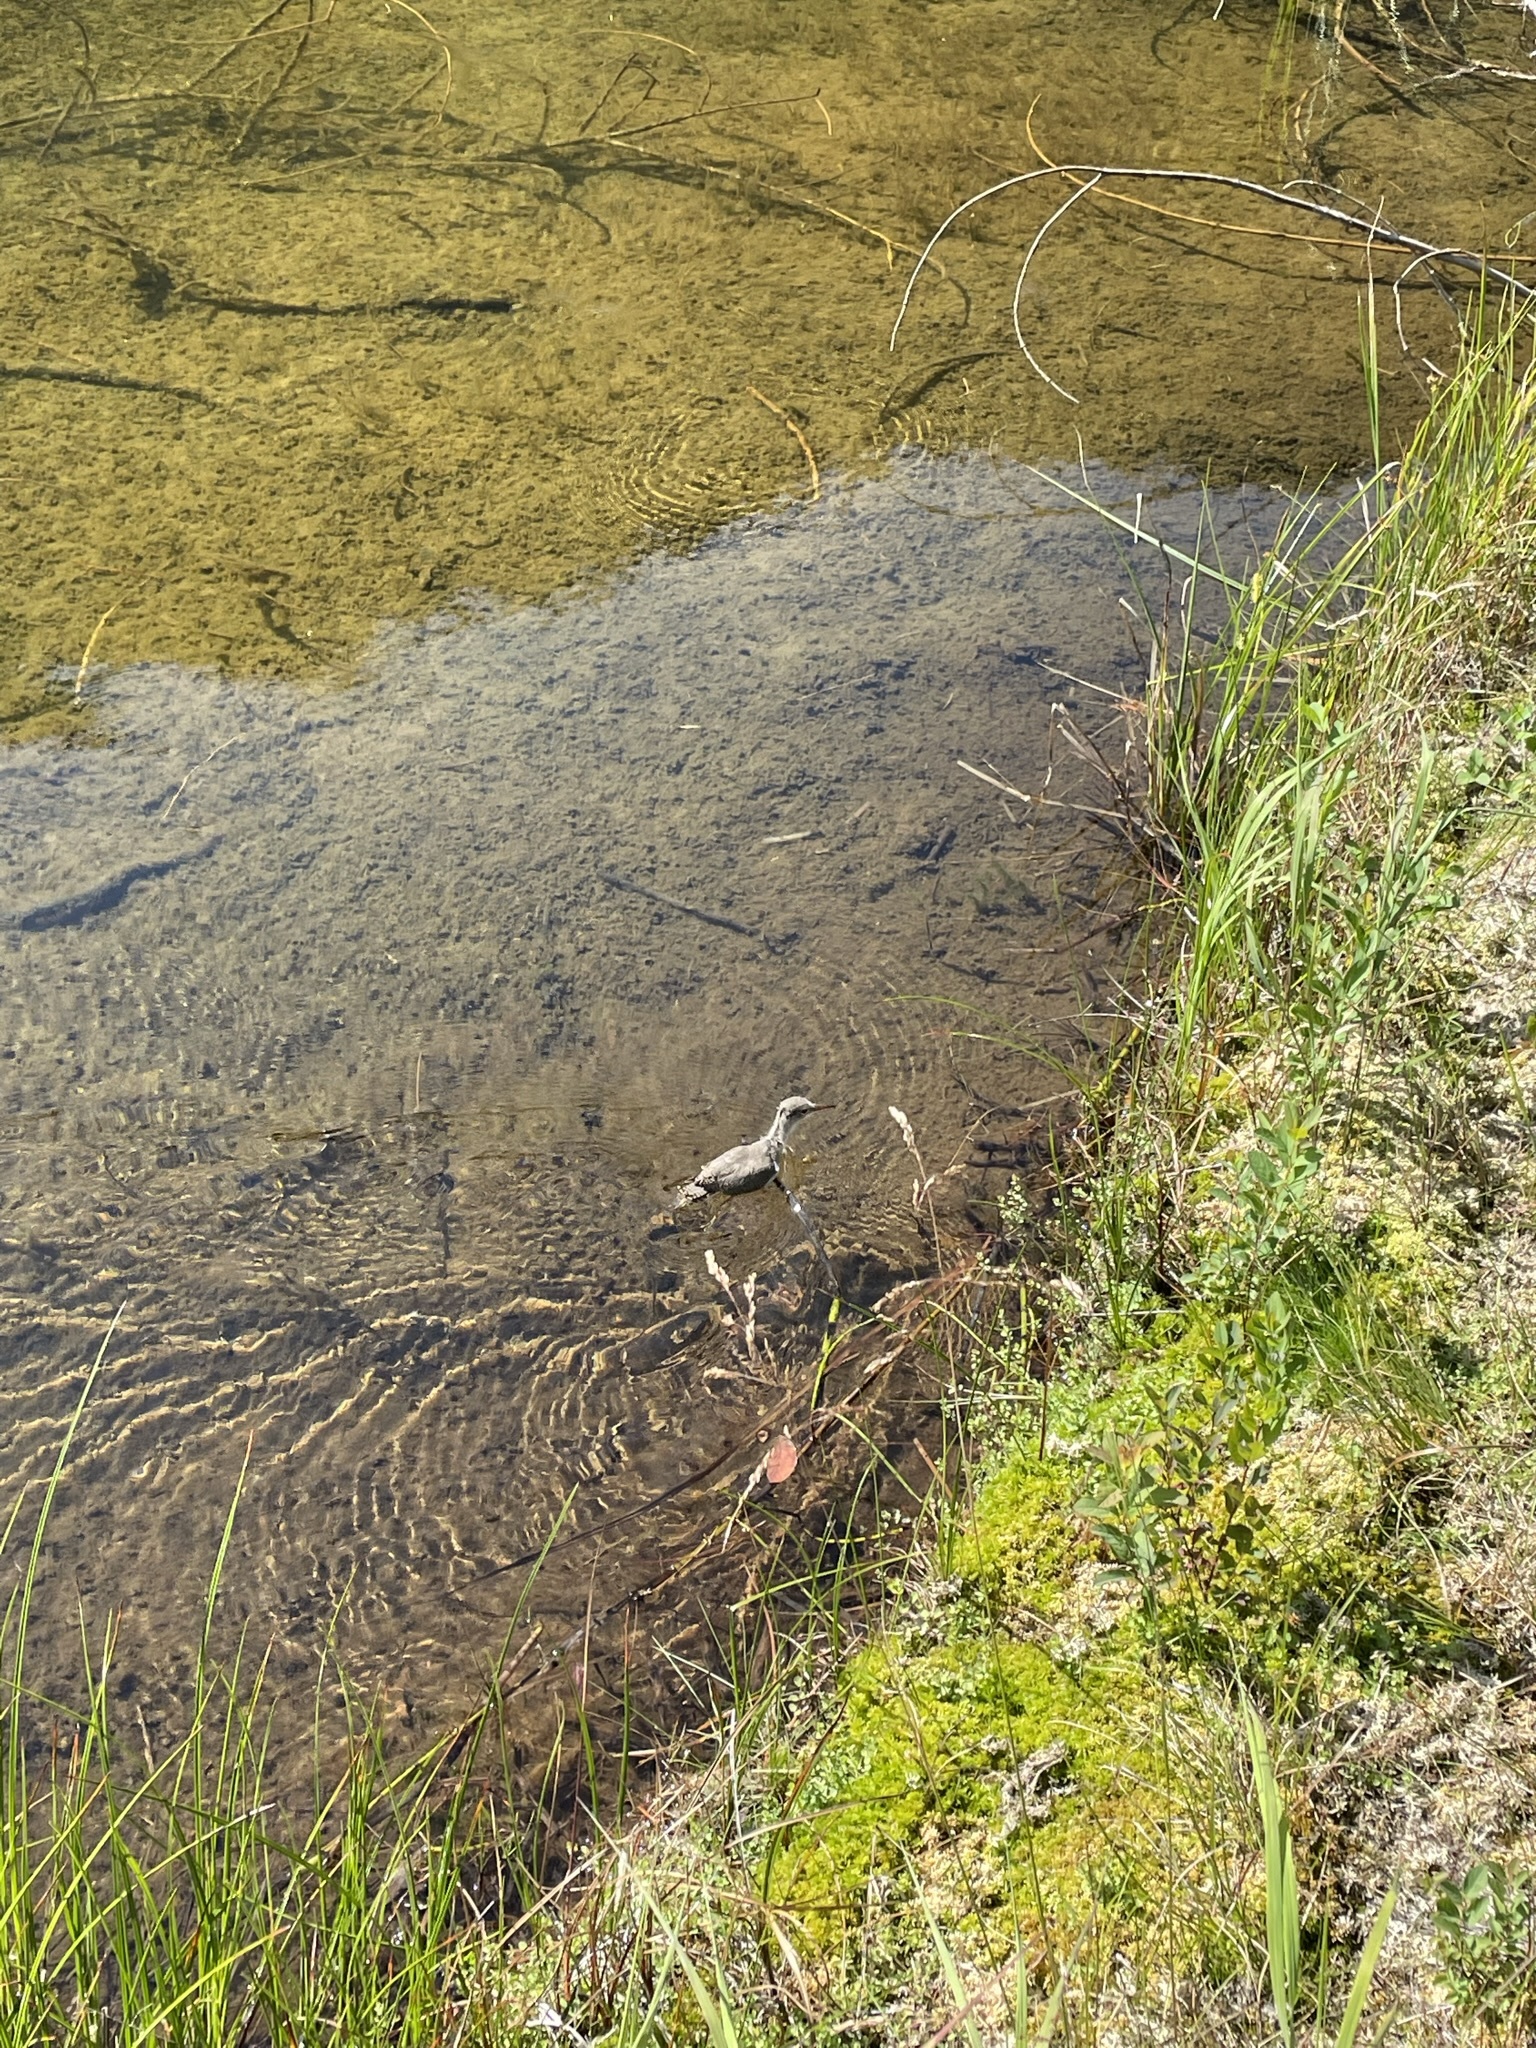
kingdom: Animalia
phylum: Chordata
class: Aves
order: Charadriiformes
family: Scolopacidae
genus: Actitis
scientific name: Actitis macularius
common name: Spotted sandpiper
